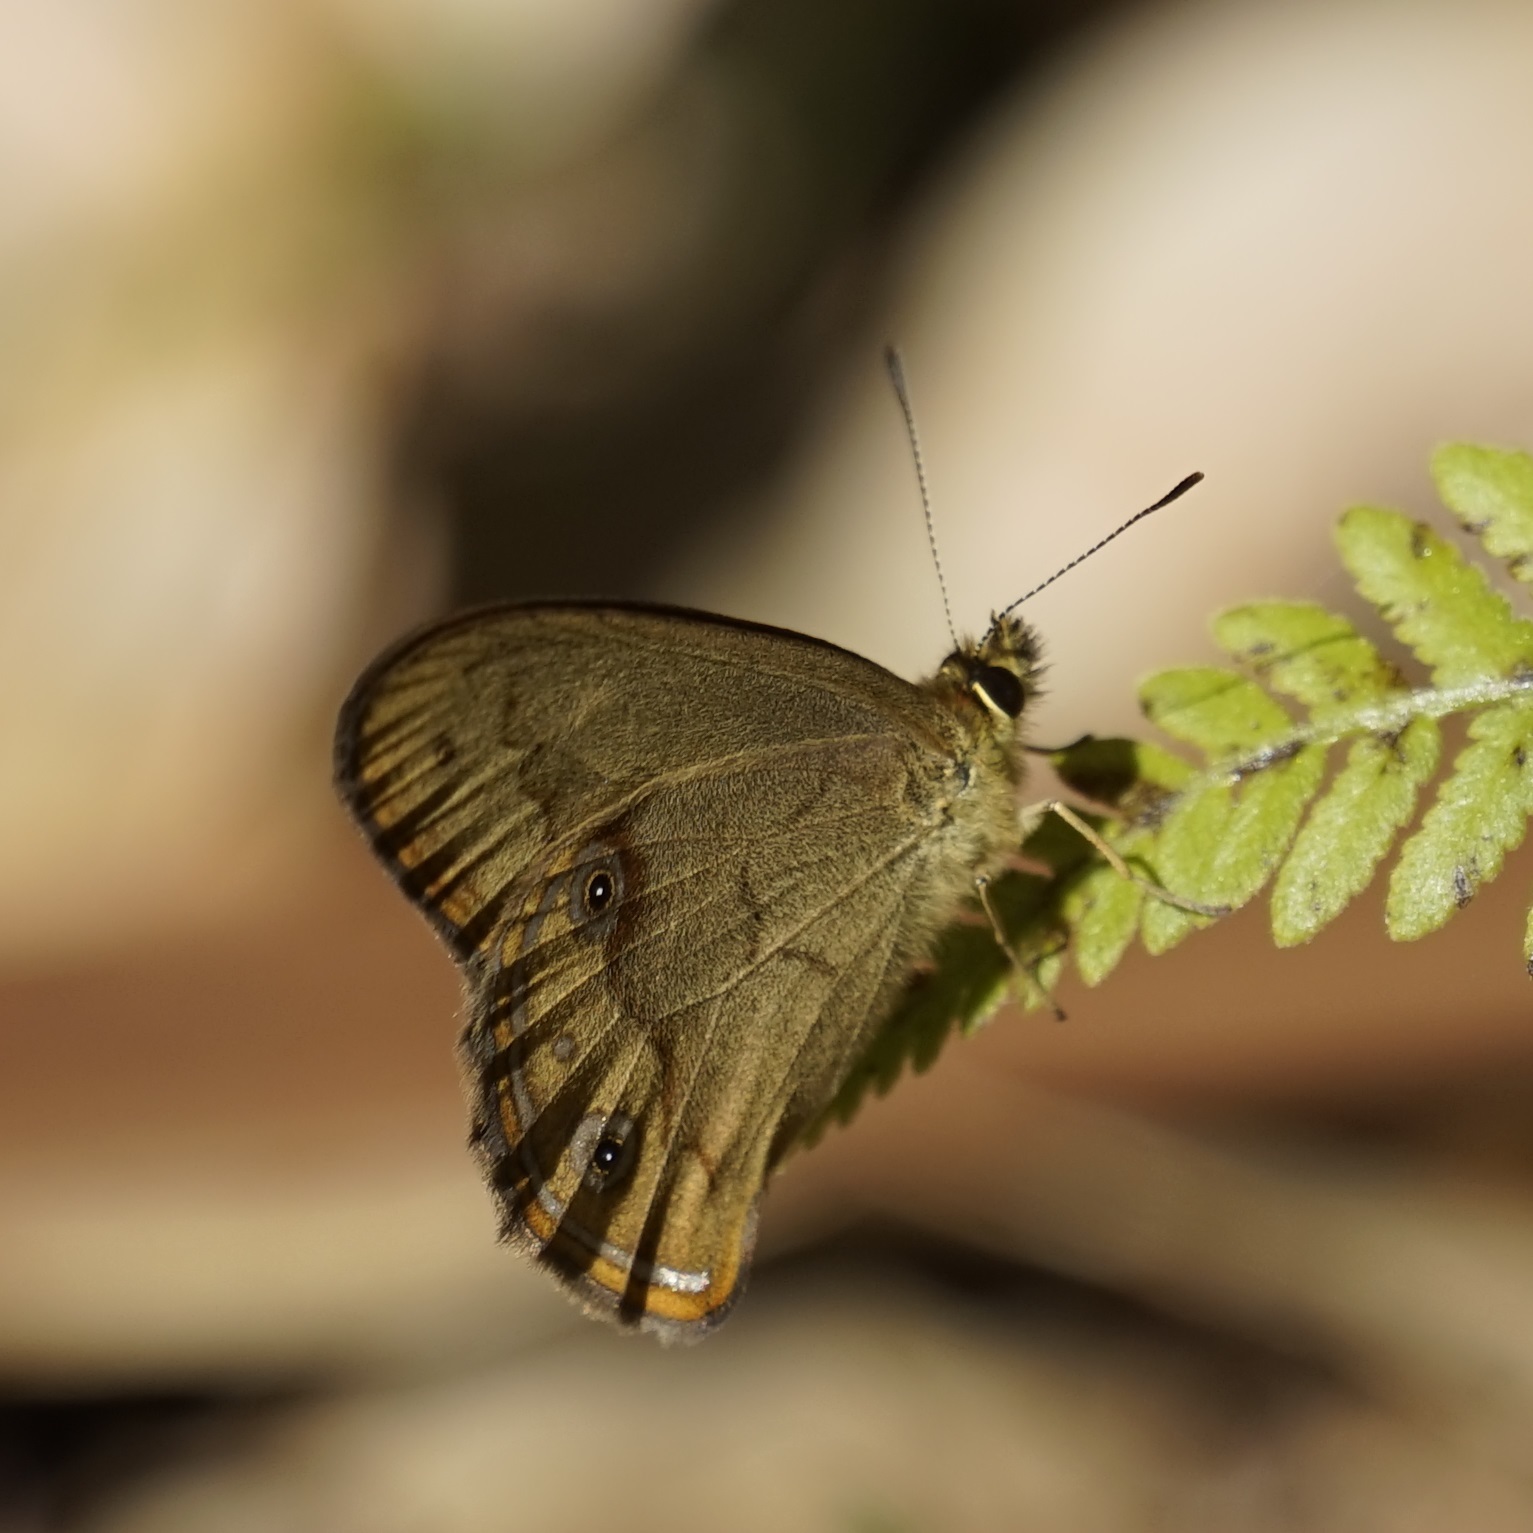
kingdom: Animalia
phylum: Arthropoda
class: Insecta
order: Lepidoptera
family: Nymphalidae
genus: Hypocysta
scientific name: Hypocysta metirius
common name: Brown ringlet
